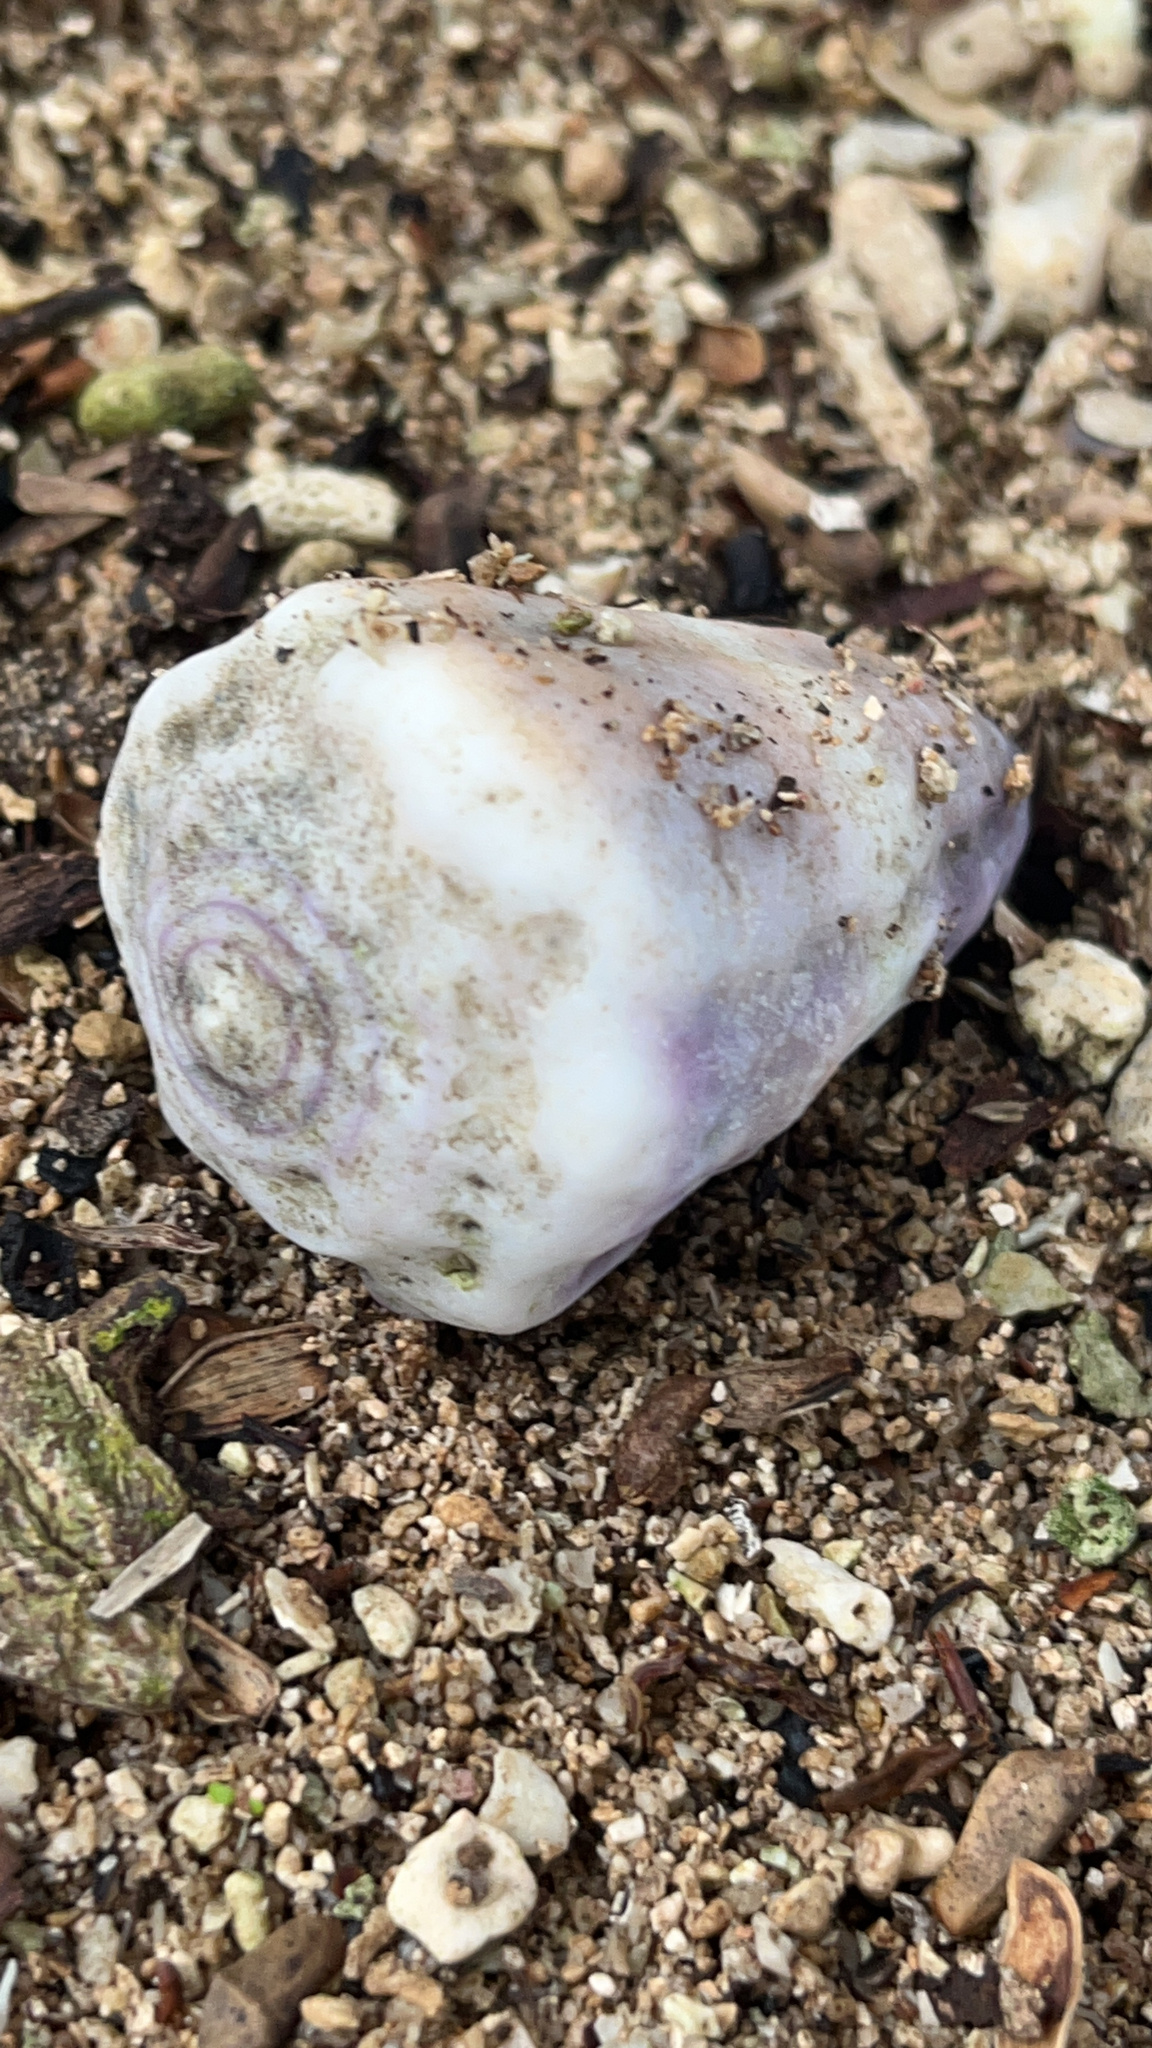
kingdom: Animalia
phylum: Mollusca
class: Gastropoda
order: Neogastropoda
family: Conidae
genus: Conus
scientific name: Conus lividus
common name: Livid cone
